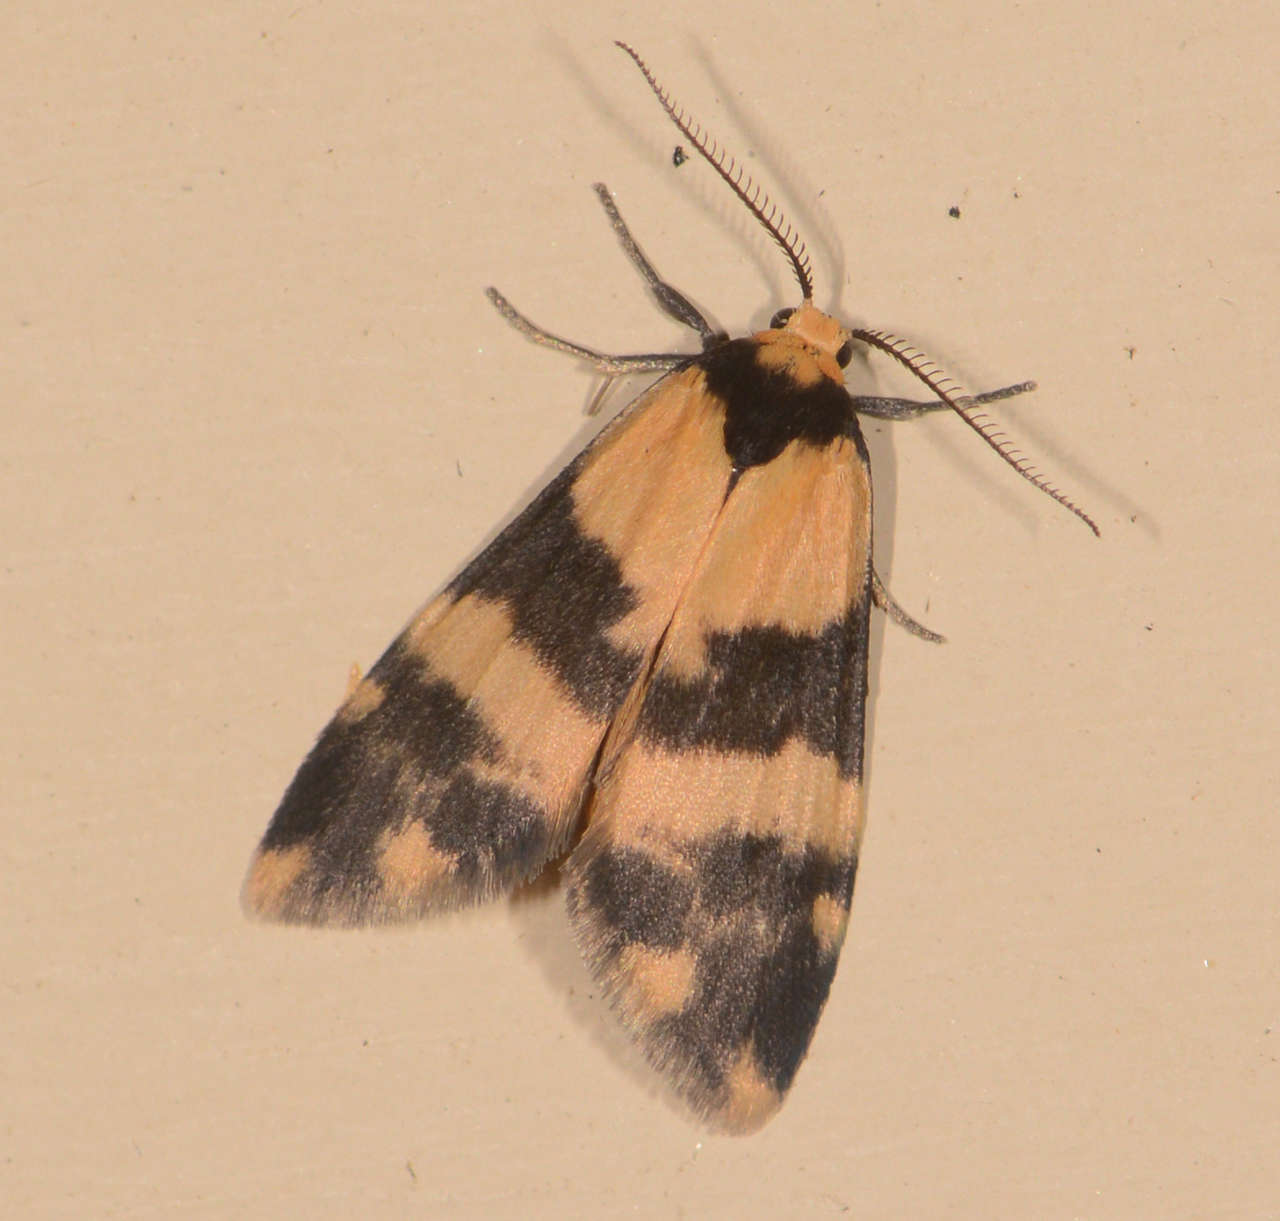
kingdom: Animalia
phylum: Arthropoda
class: Insecta
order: Lepidoptera
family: Erebidae
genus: Thallarcha
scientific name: Thallarcha chrysochares
